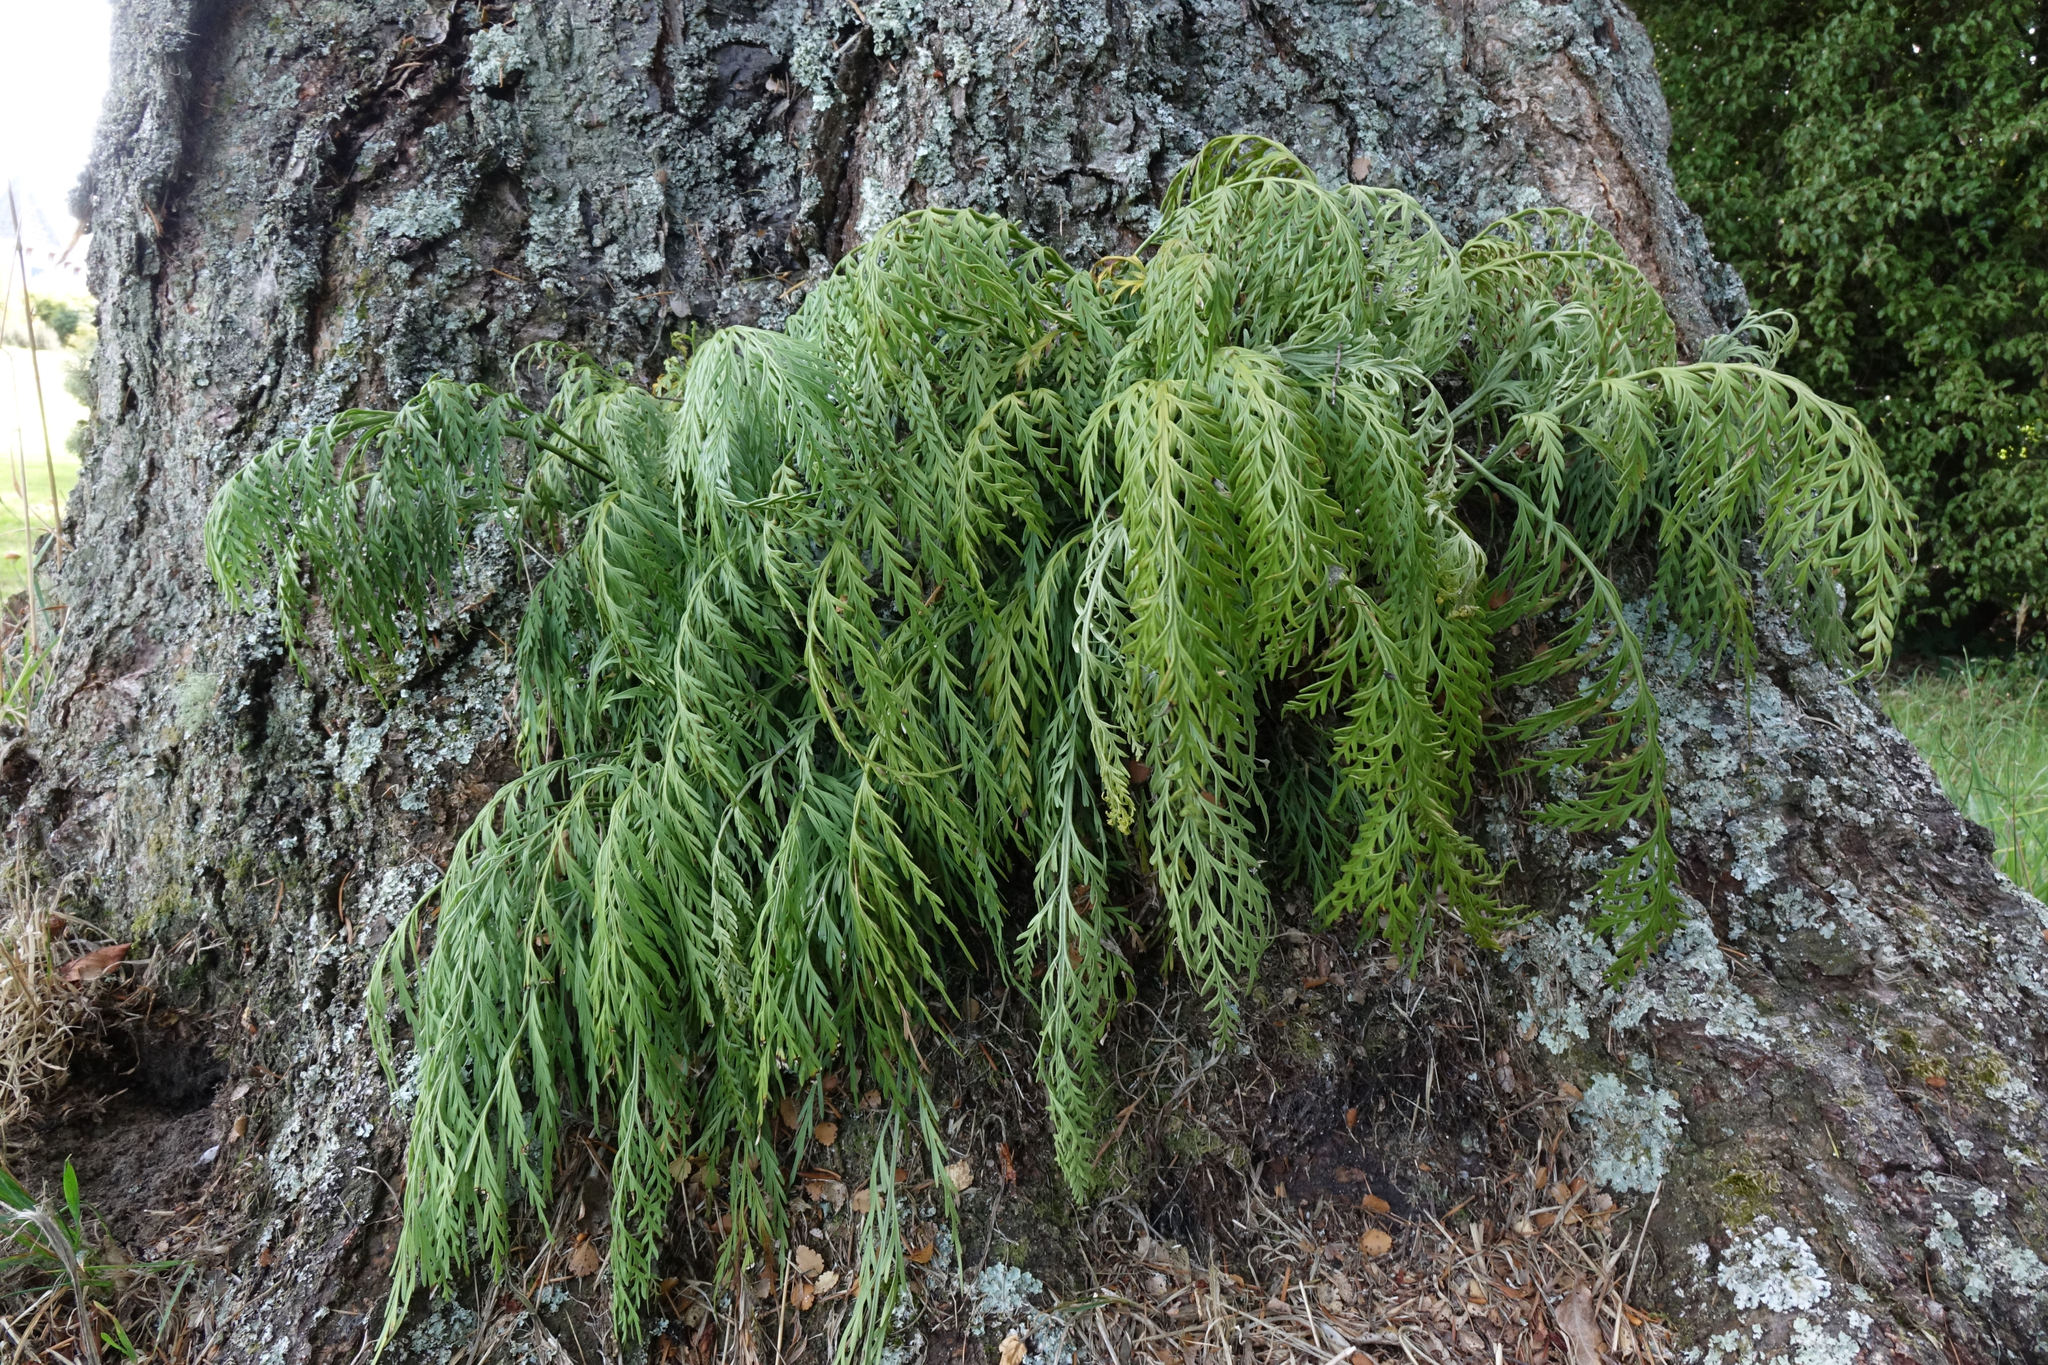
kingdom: Plantae
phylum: Tracheophyta
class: Polypodiopsida
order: Polypodiales
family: Aspleniaceae
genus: Asplenium
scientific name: Asplenium flaccidum
